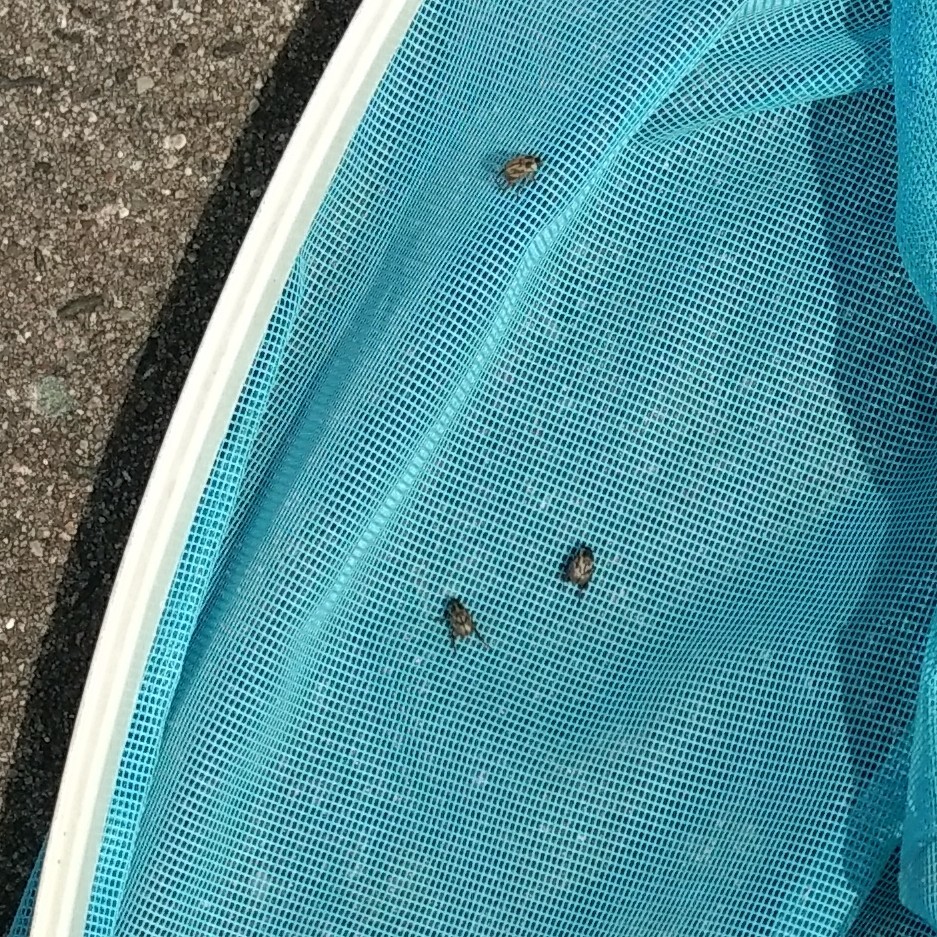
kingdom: Animalia
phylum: Arthropoda
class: Insecta
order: Coleoptera
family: Scarabaeidae
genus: Exomala
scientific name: Exomala orientalis
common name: Oriental beetle
